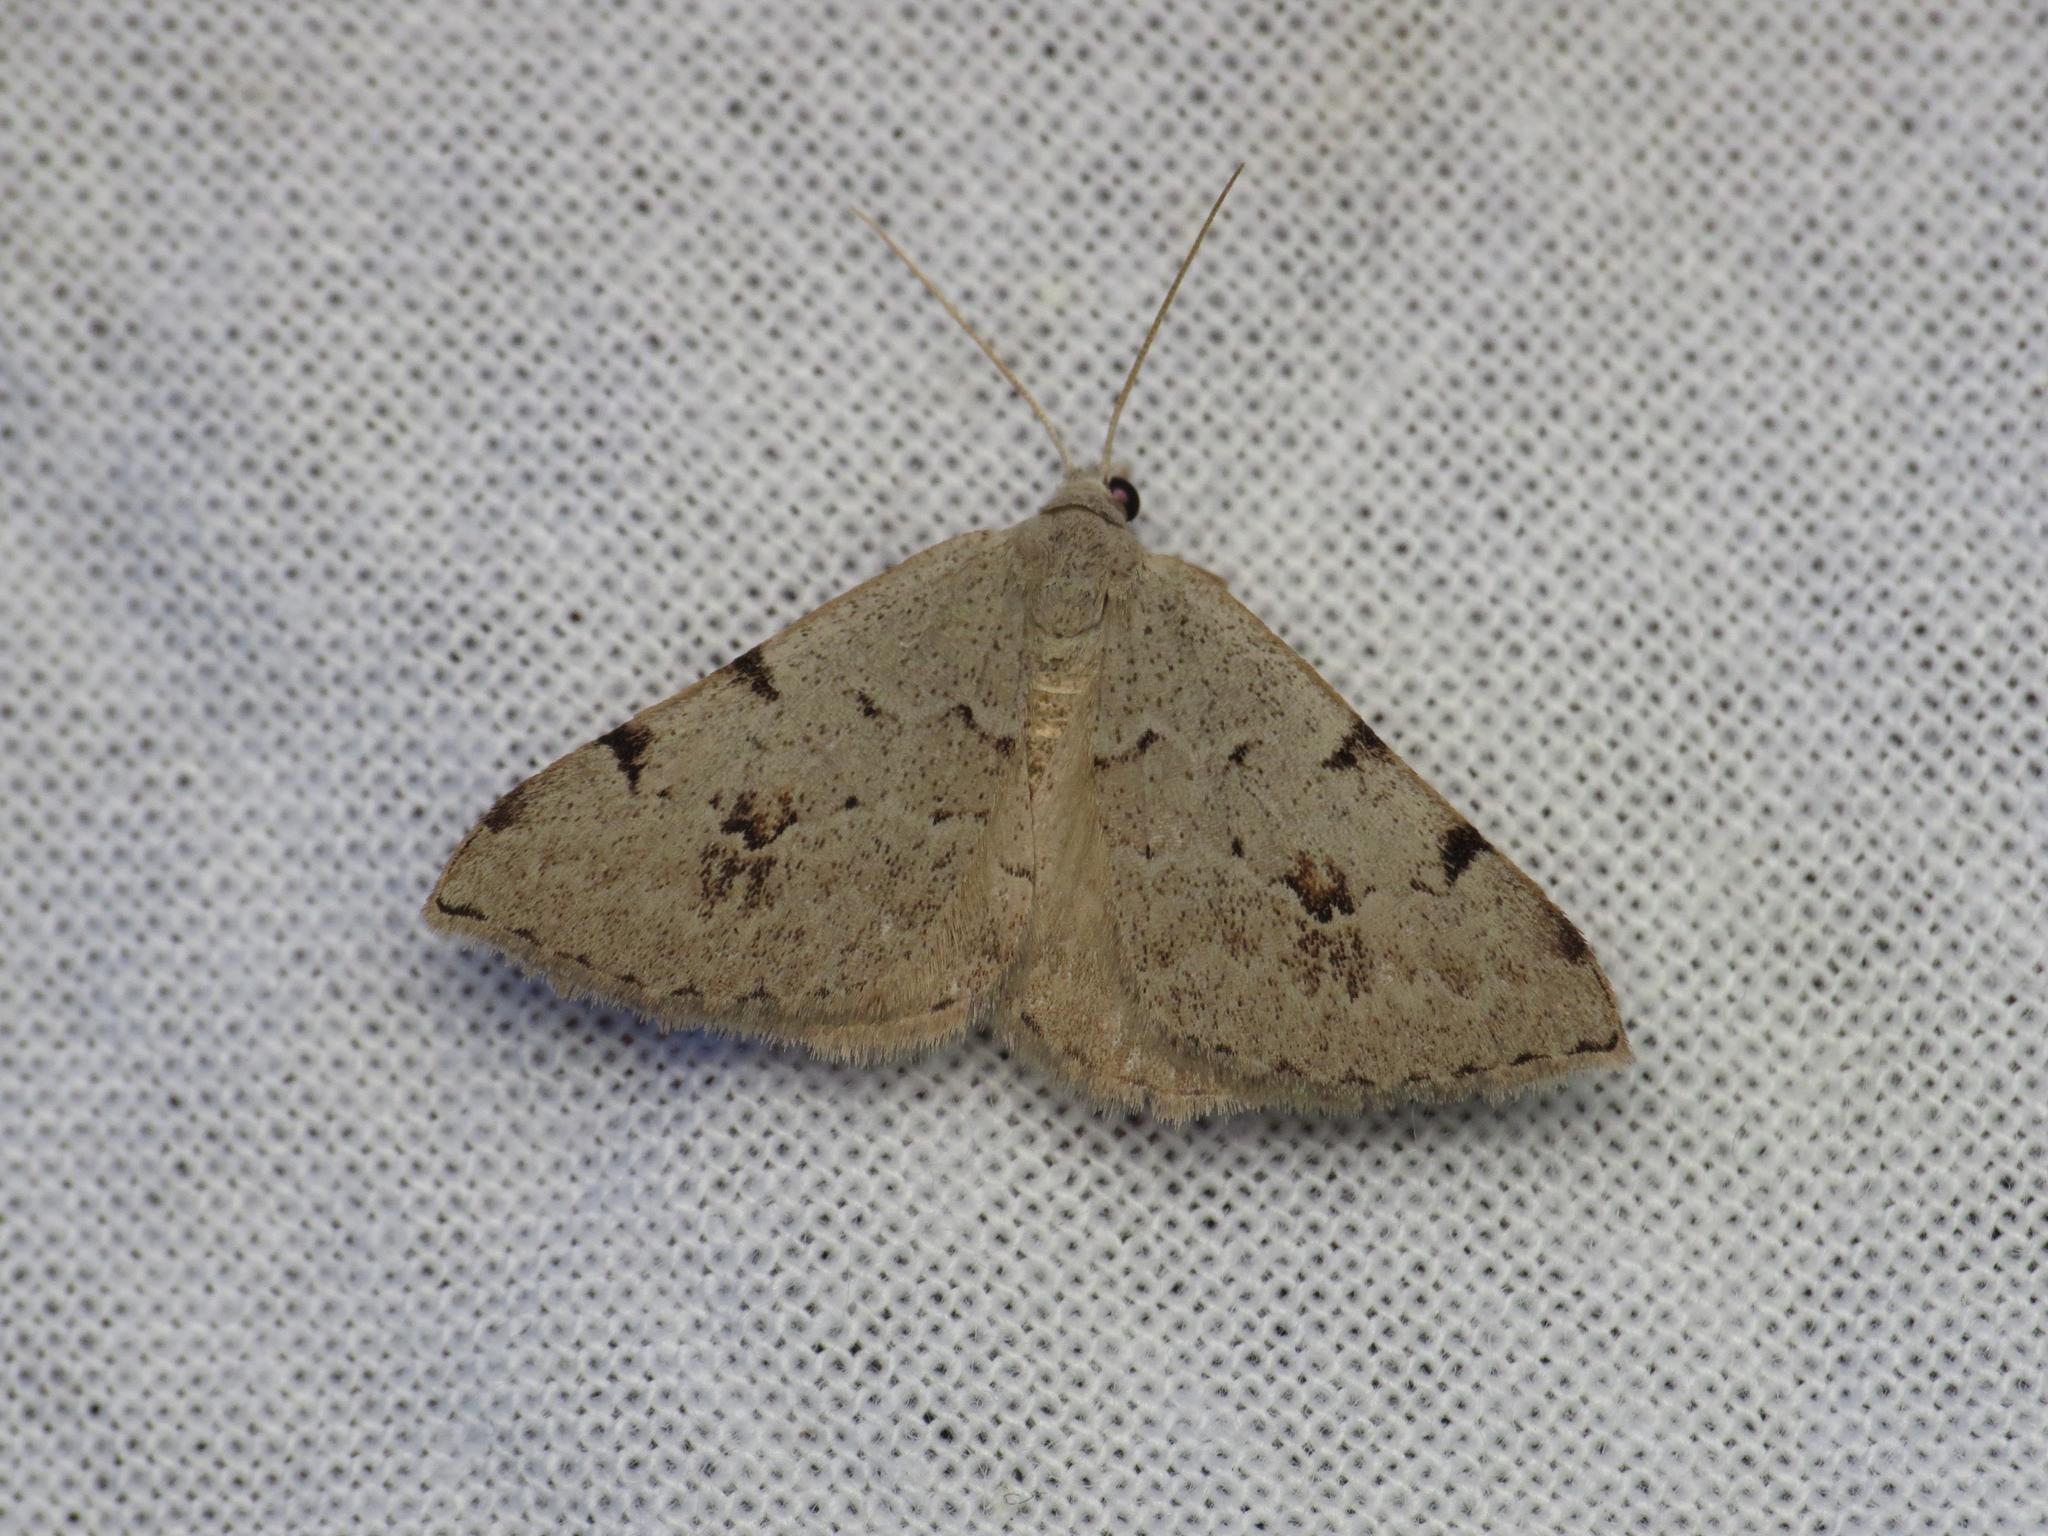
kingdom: Animalia
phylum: Arthropoda
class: Insecta
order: Lepidoptera
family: Geometridae
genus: Dichromodes
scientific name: Dichromodes estigmaria
